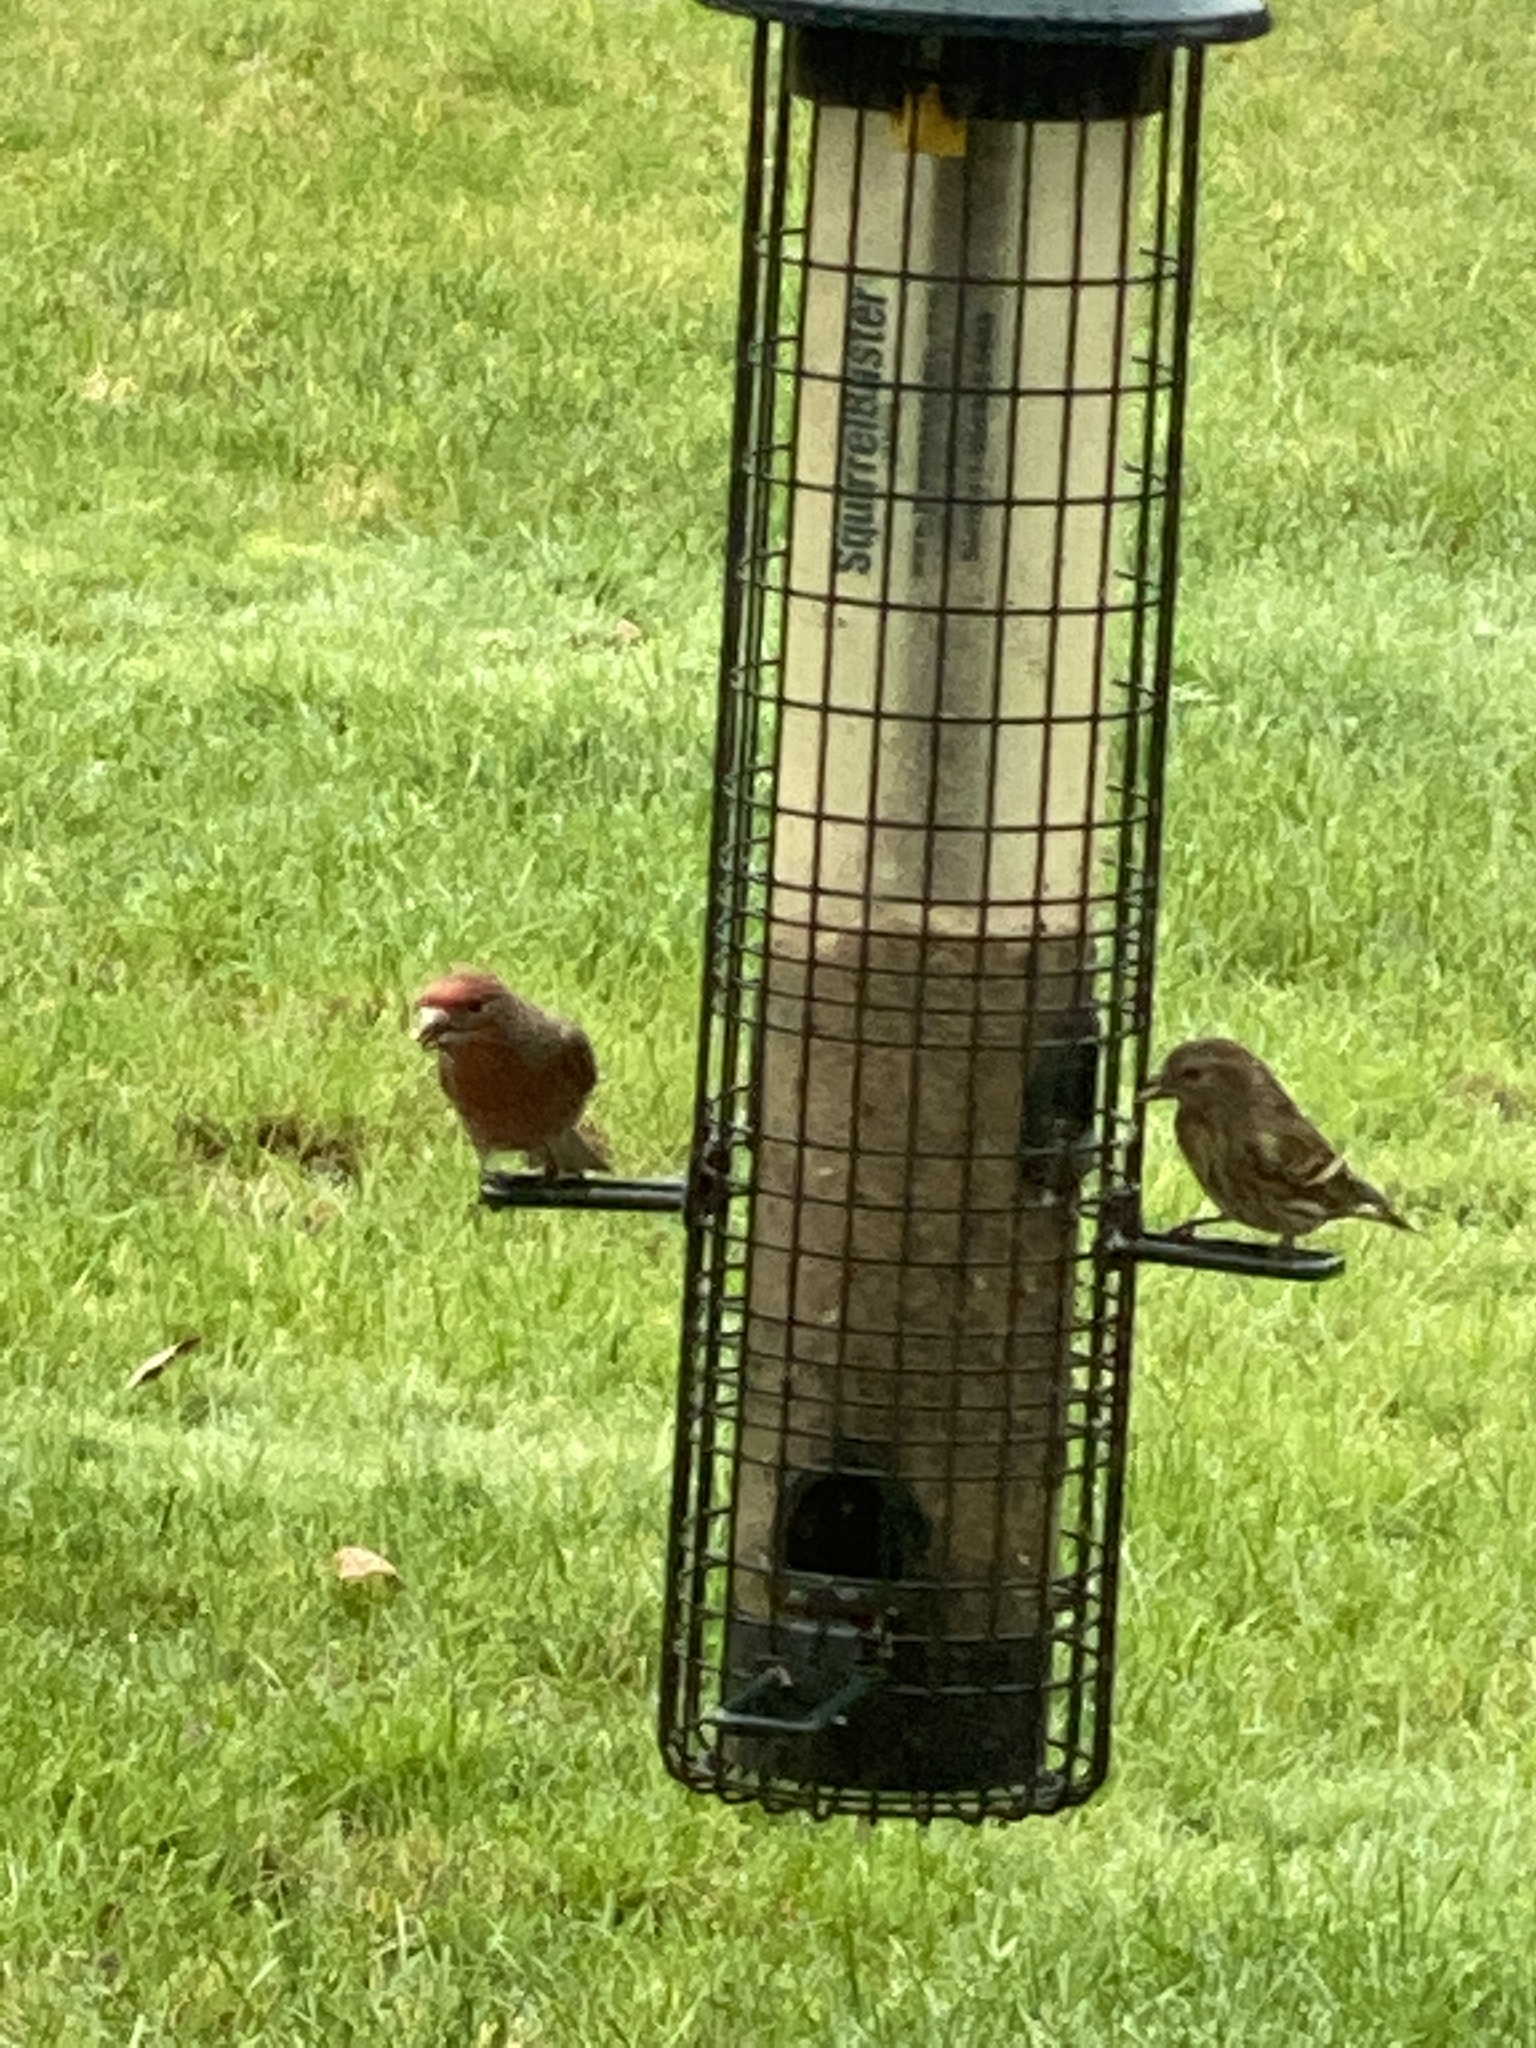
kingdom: Animalia
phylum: Chordata
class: Aves
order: Passeriformes
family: Fringillidae
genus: Haemorhous
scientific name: Haemorhous mexicanus
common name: House finch
